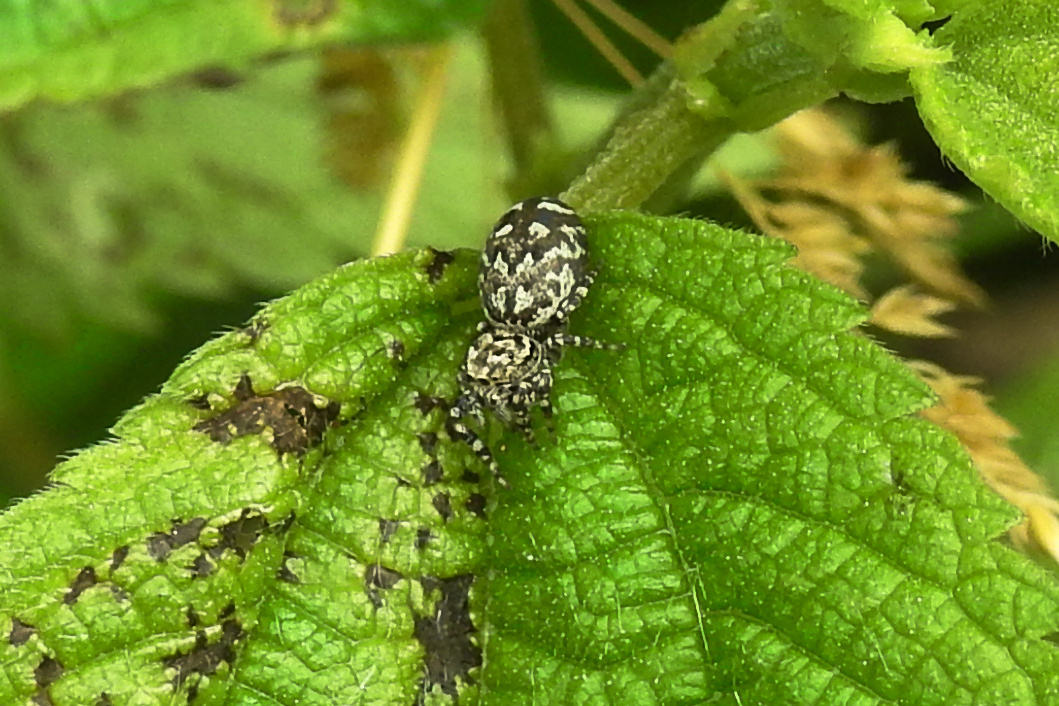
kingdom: Animalia
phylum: Arthropoda
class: Arachnida
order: Araneae
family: Salticidae
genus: Pelegrina
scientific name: Pelegrina galathea
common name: Jumping spiders
